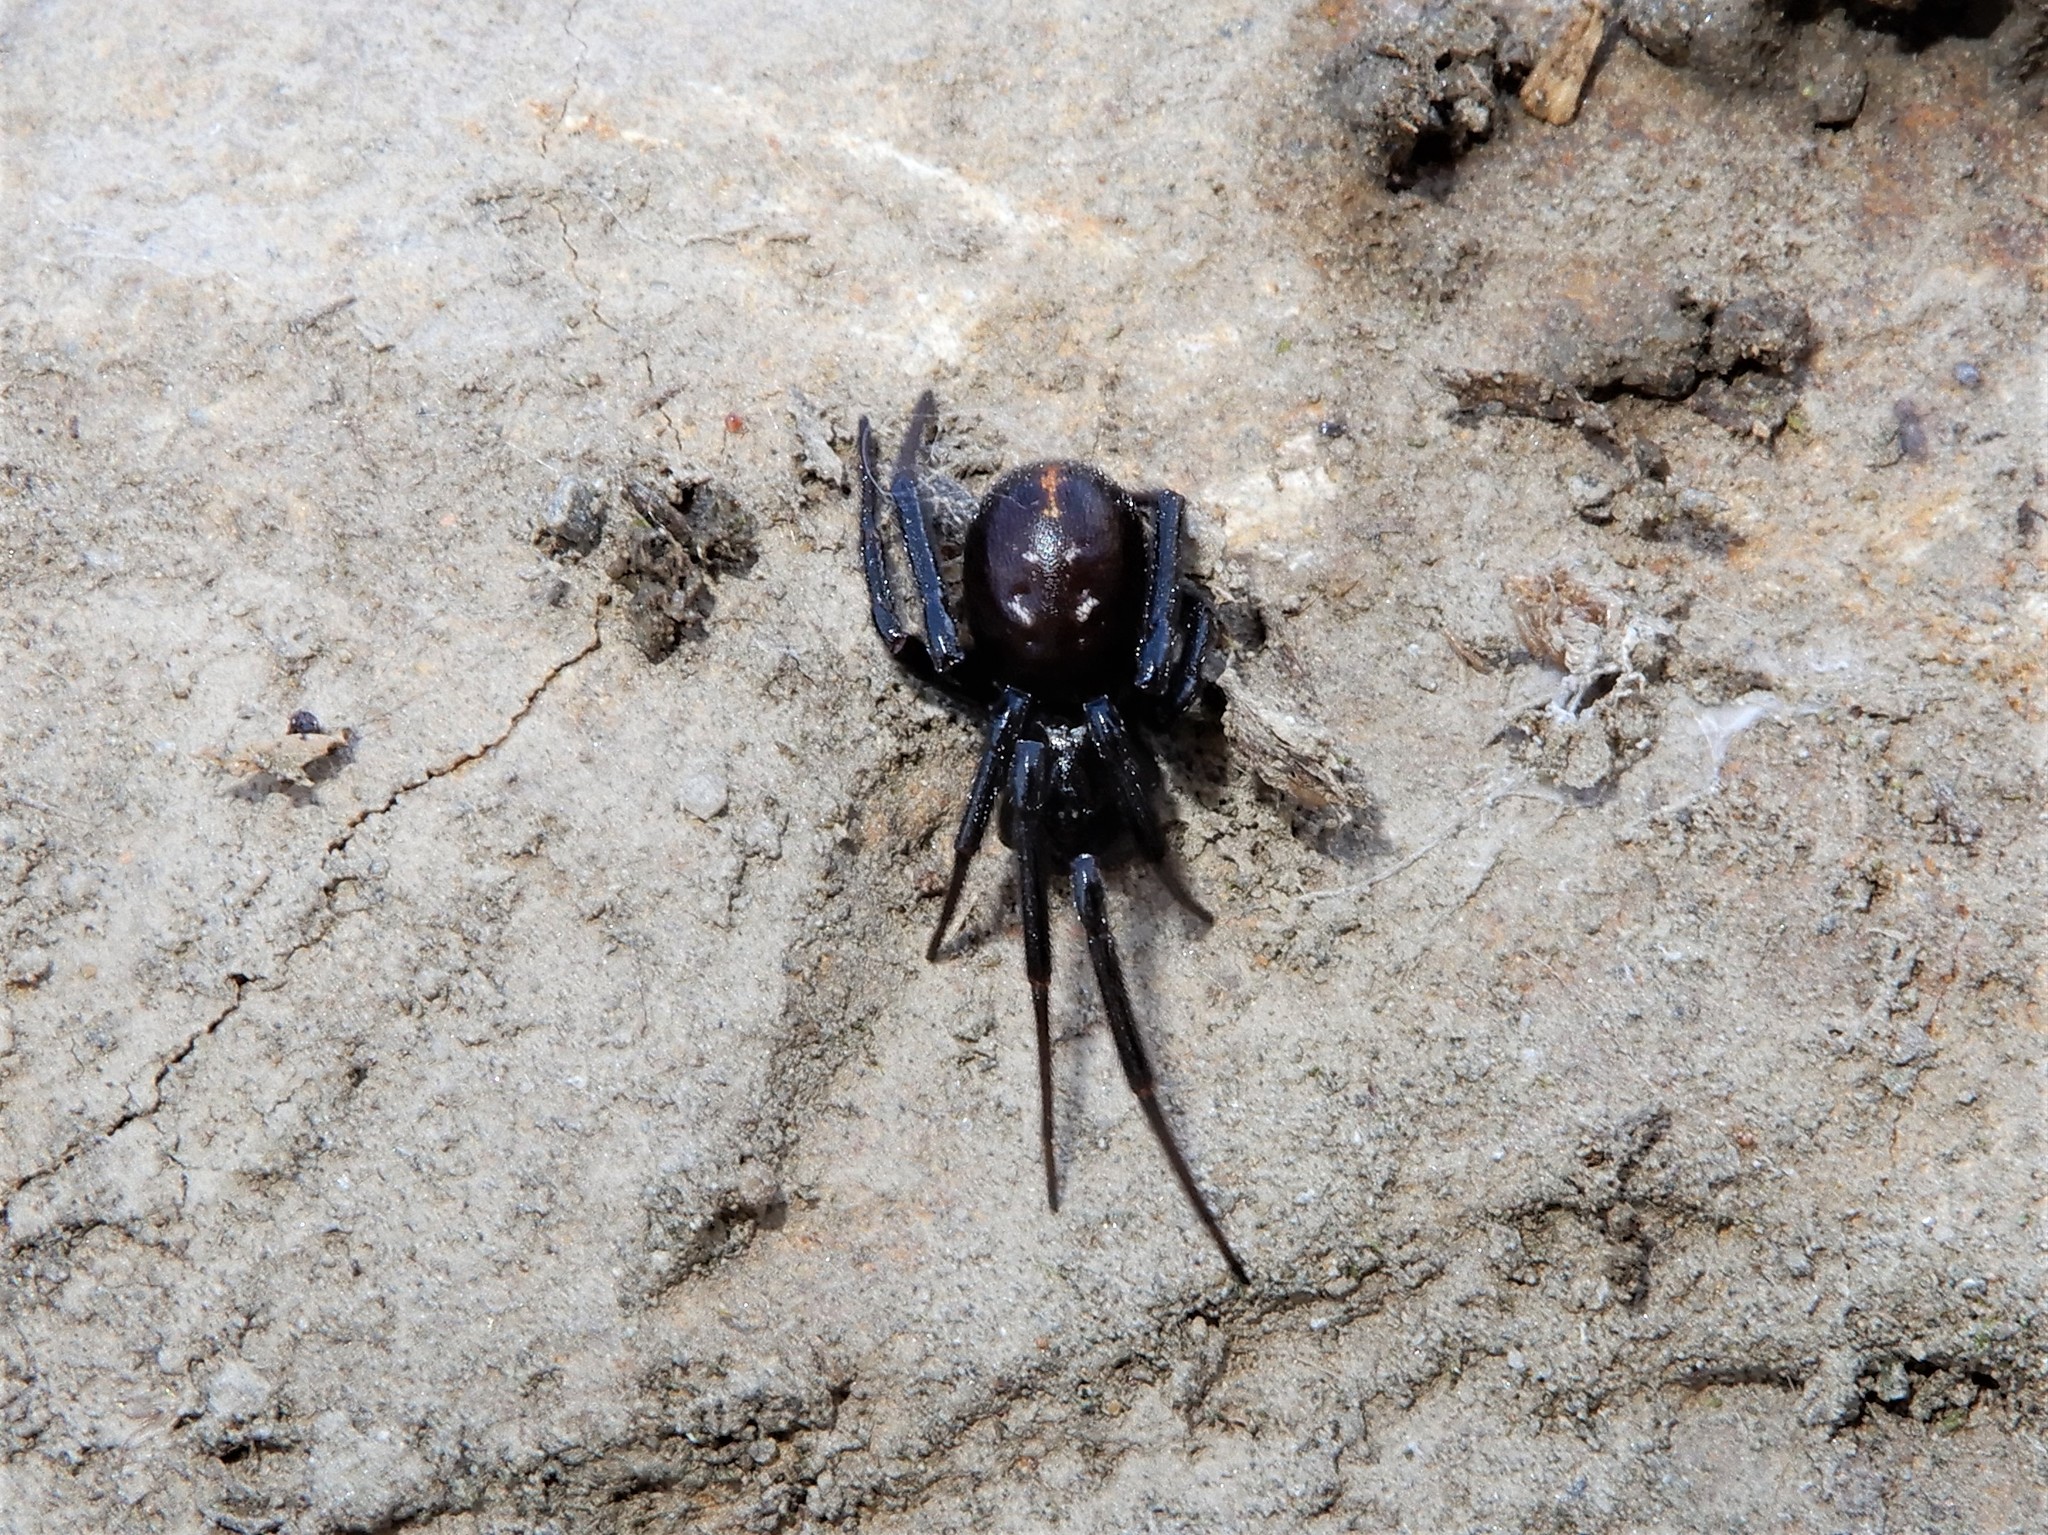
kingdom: Animalia
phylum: Arthropoda
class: Arachnida
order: Araneae
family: Theridiidae
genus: Steatoda
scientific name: Steatoda capensis
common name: Cobweb weaver
